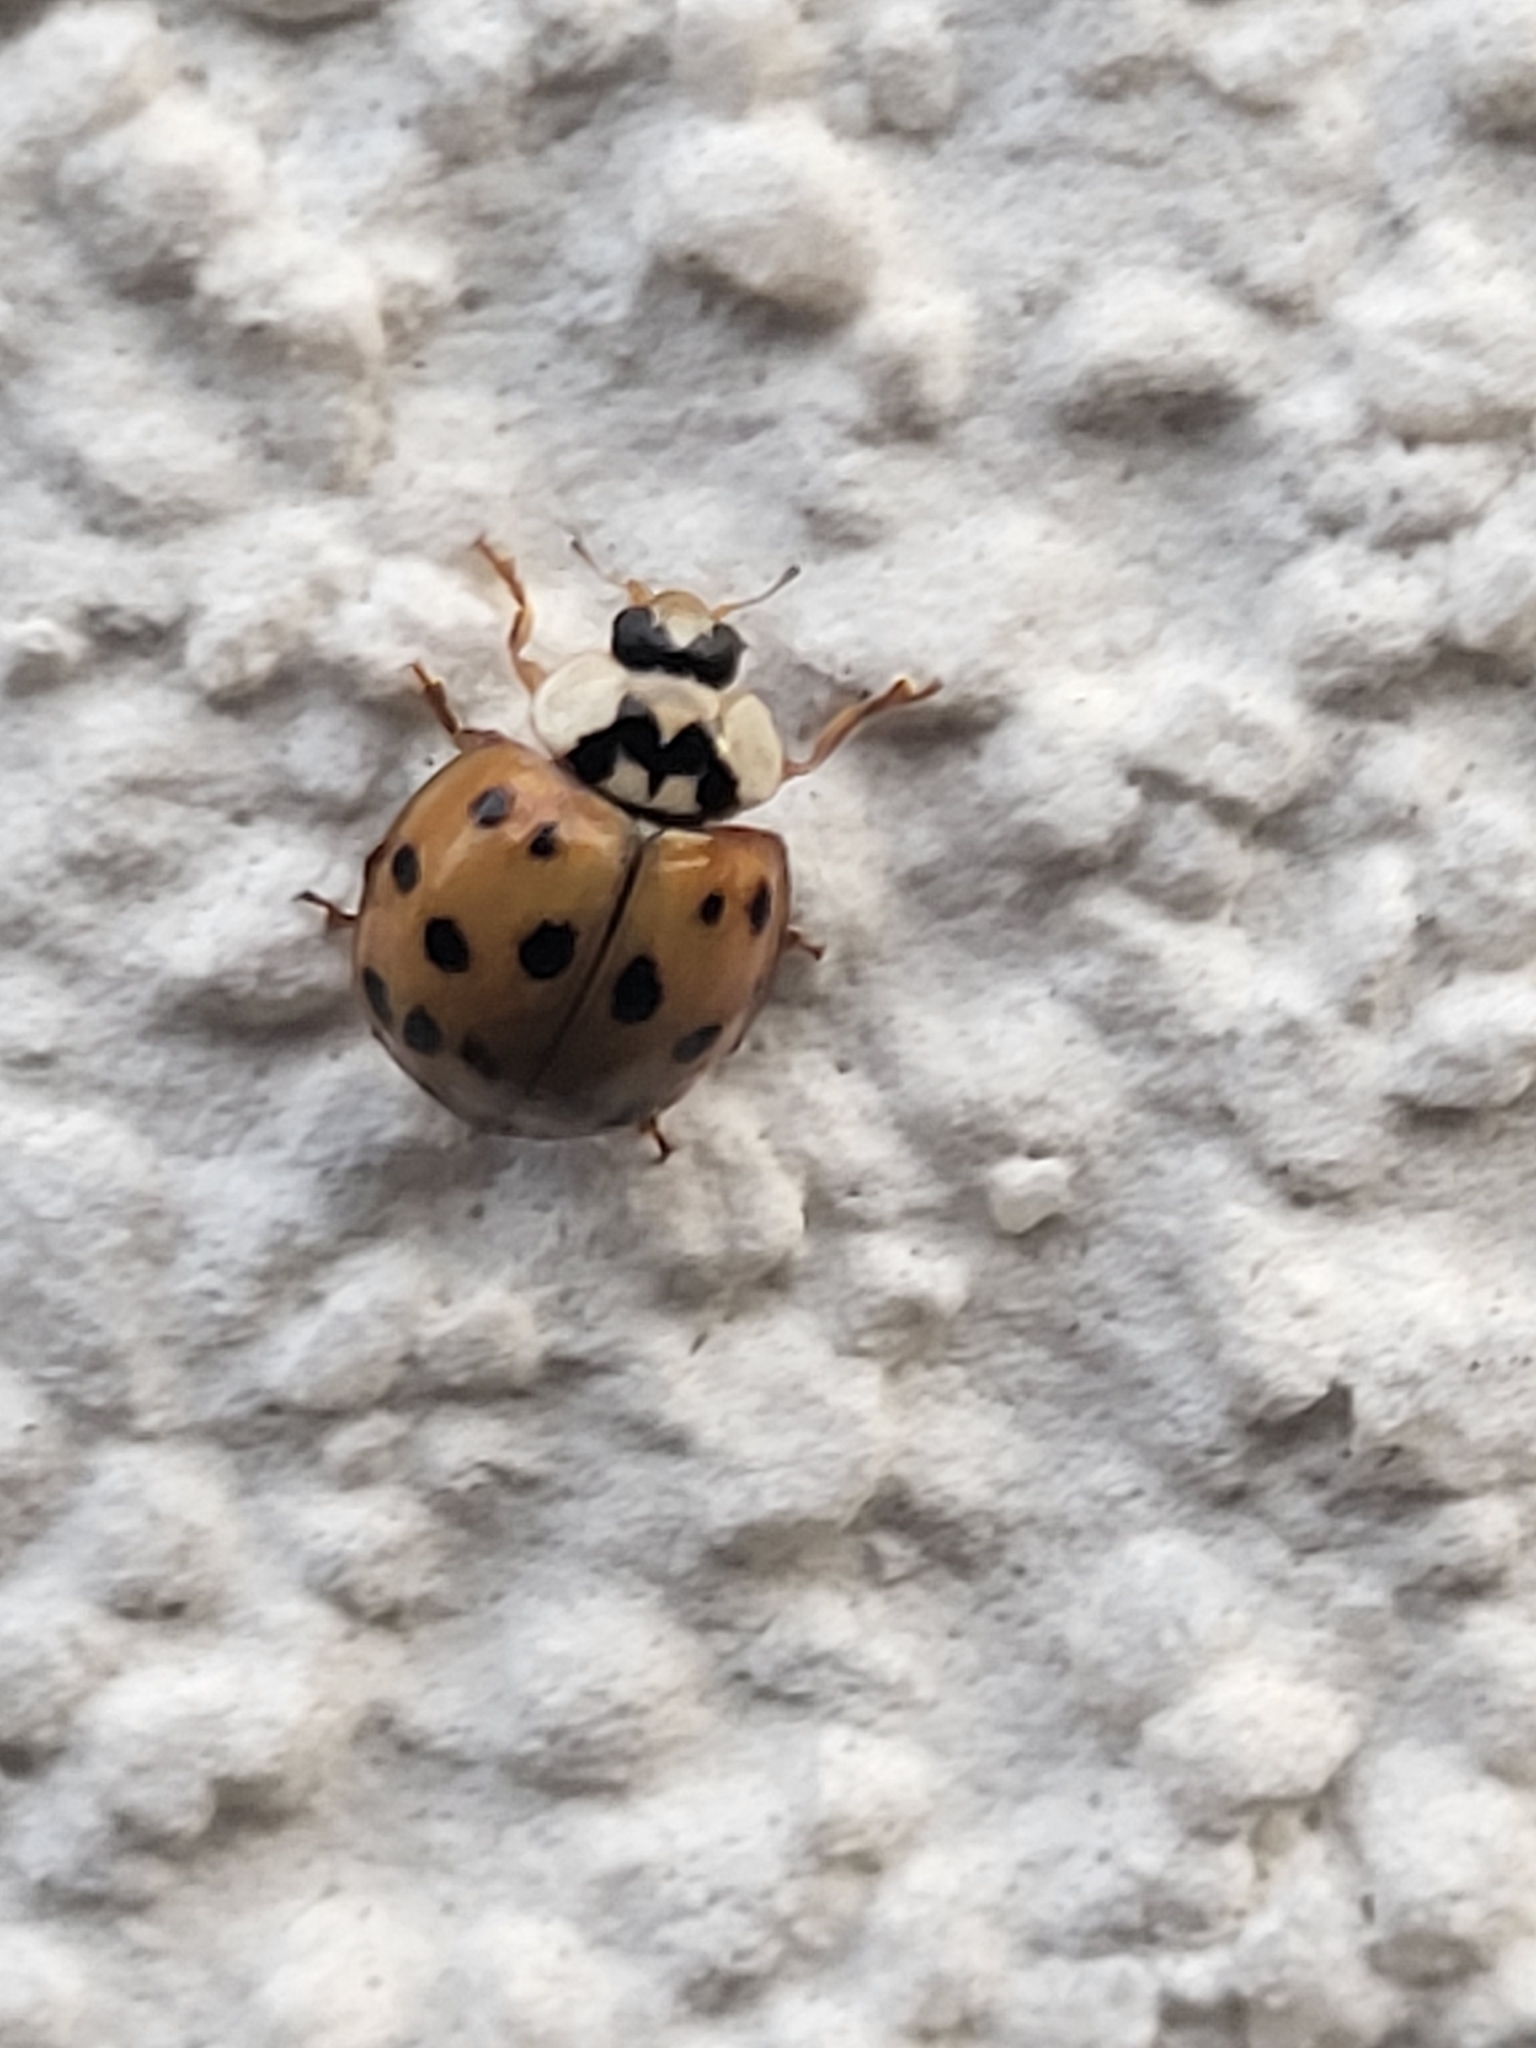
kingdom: Animalia
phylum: Arthropoda
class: Insecta
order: Coleoptera
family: Coccinellidae
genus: Harmonia
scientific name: Harmonia axyridis
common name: Harlequin ladybird
